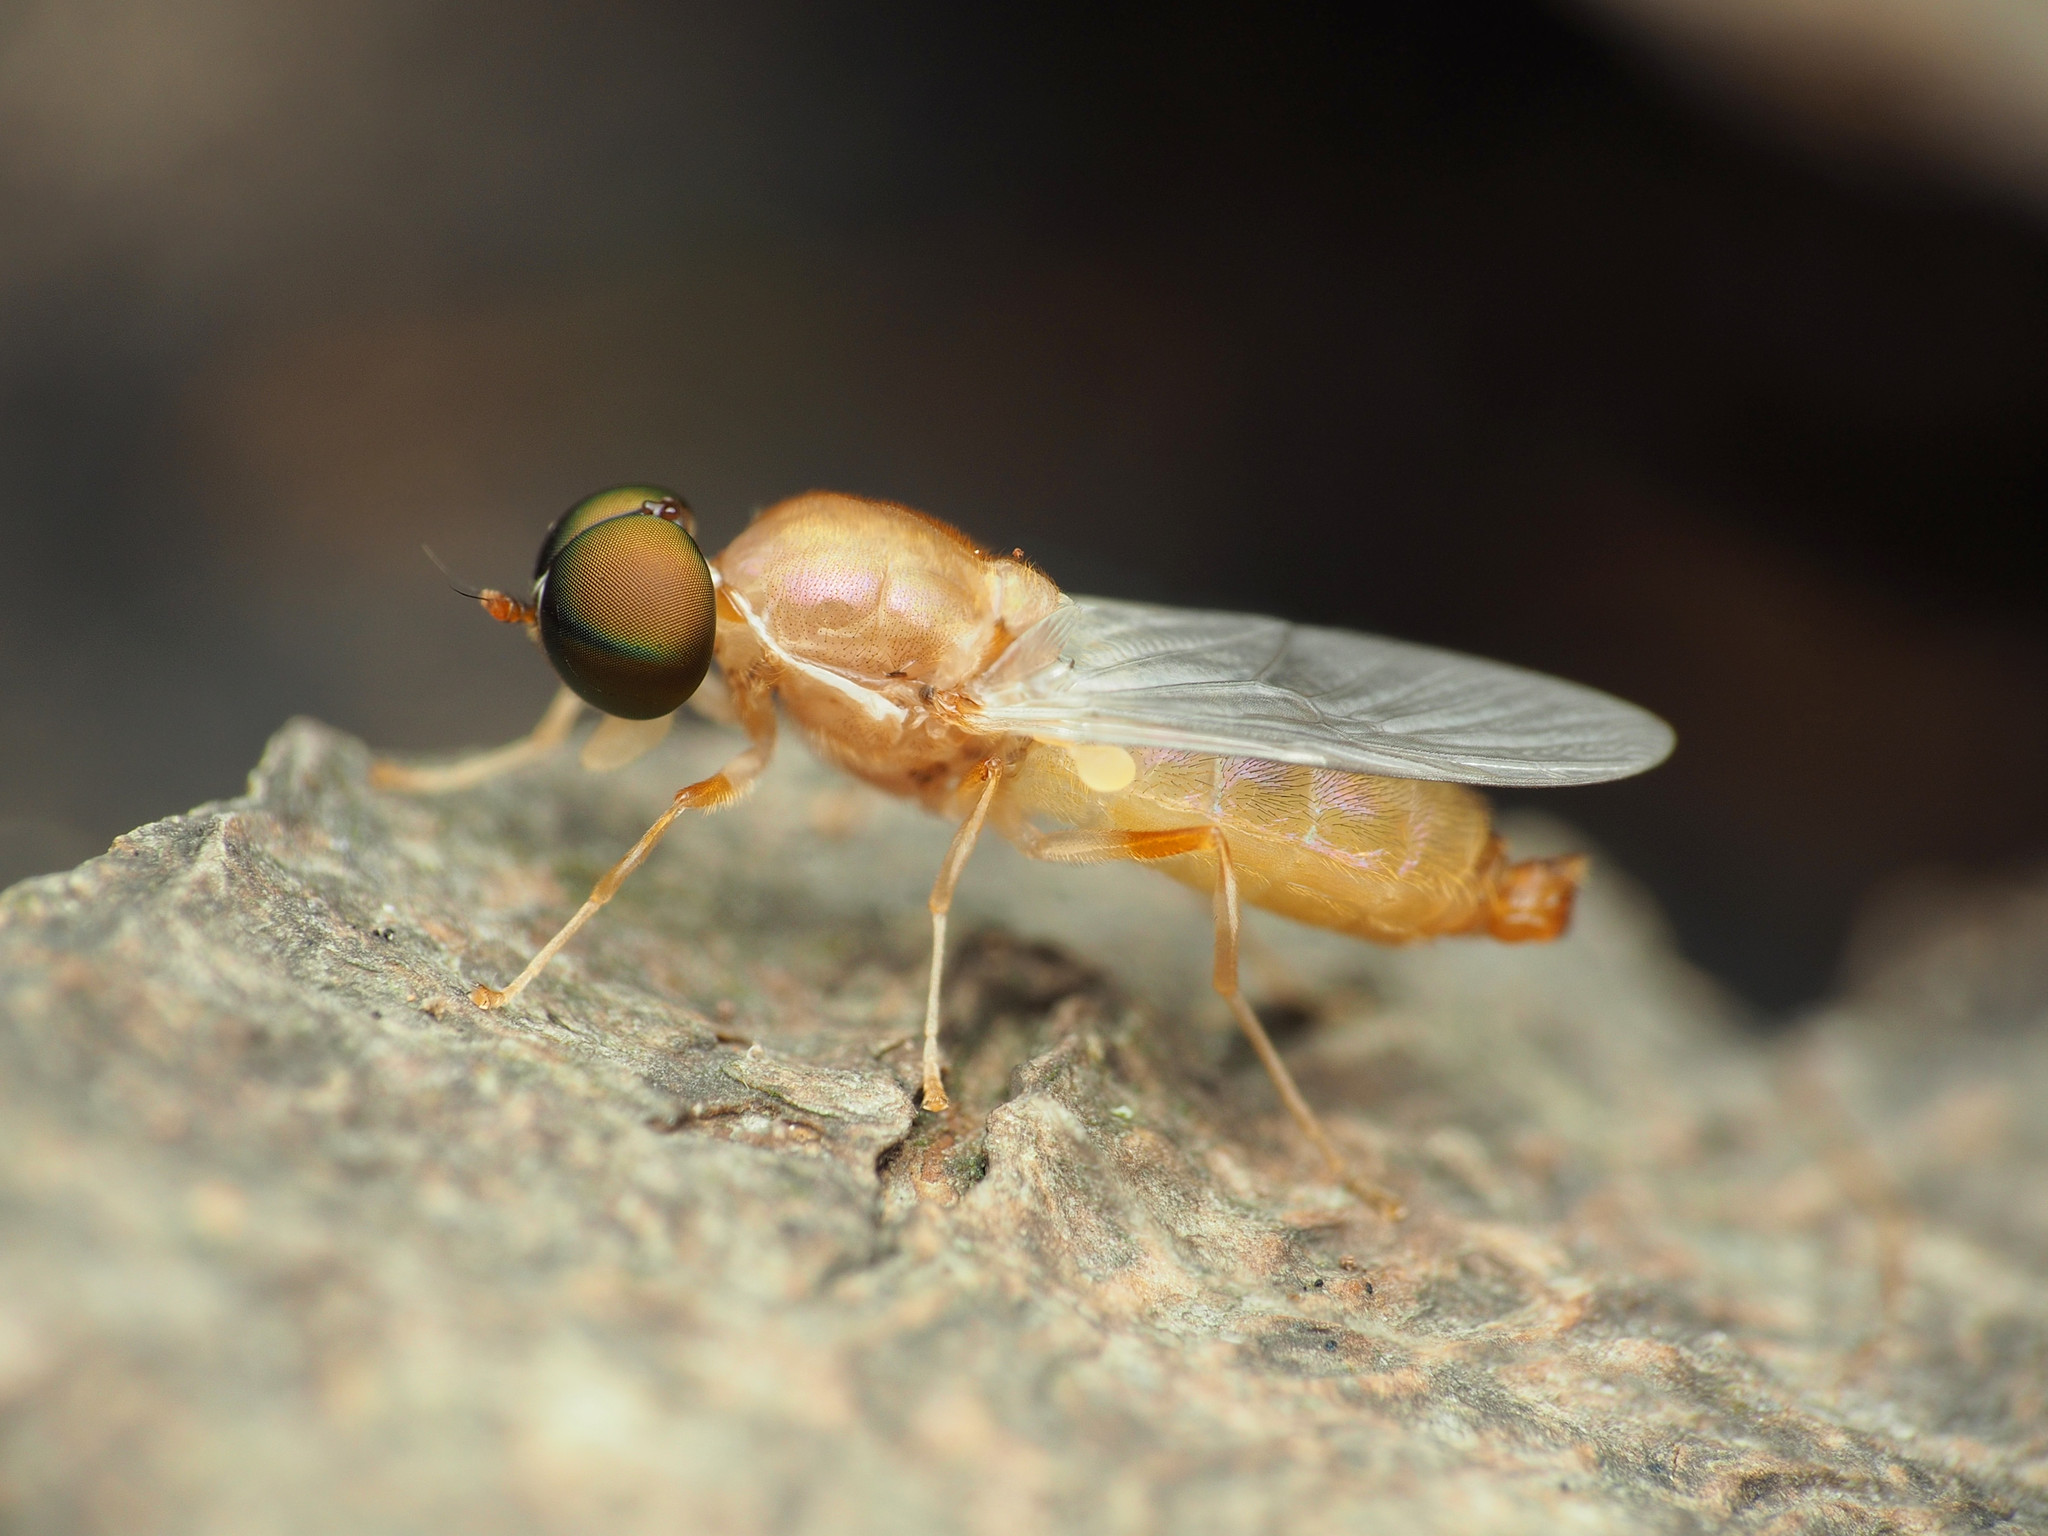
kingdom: Animalia
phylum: Arthropoda
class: Insecta
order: Diptera
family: Stratiomyidae
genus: Cephalochrysa
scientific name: Cephalochrysa canadensis
